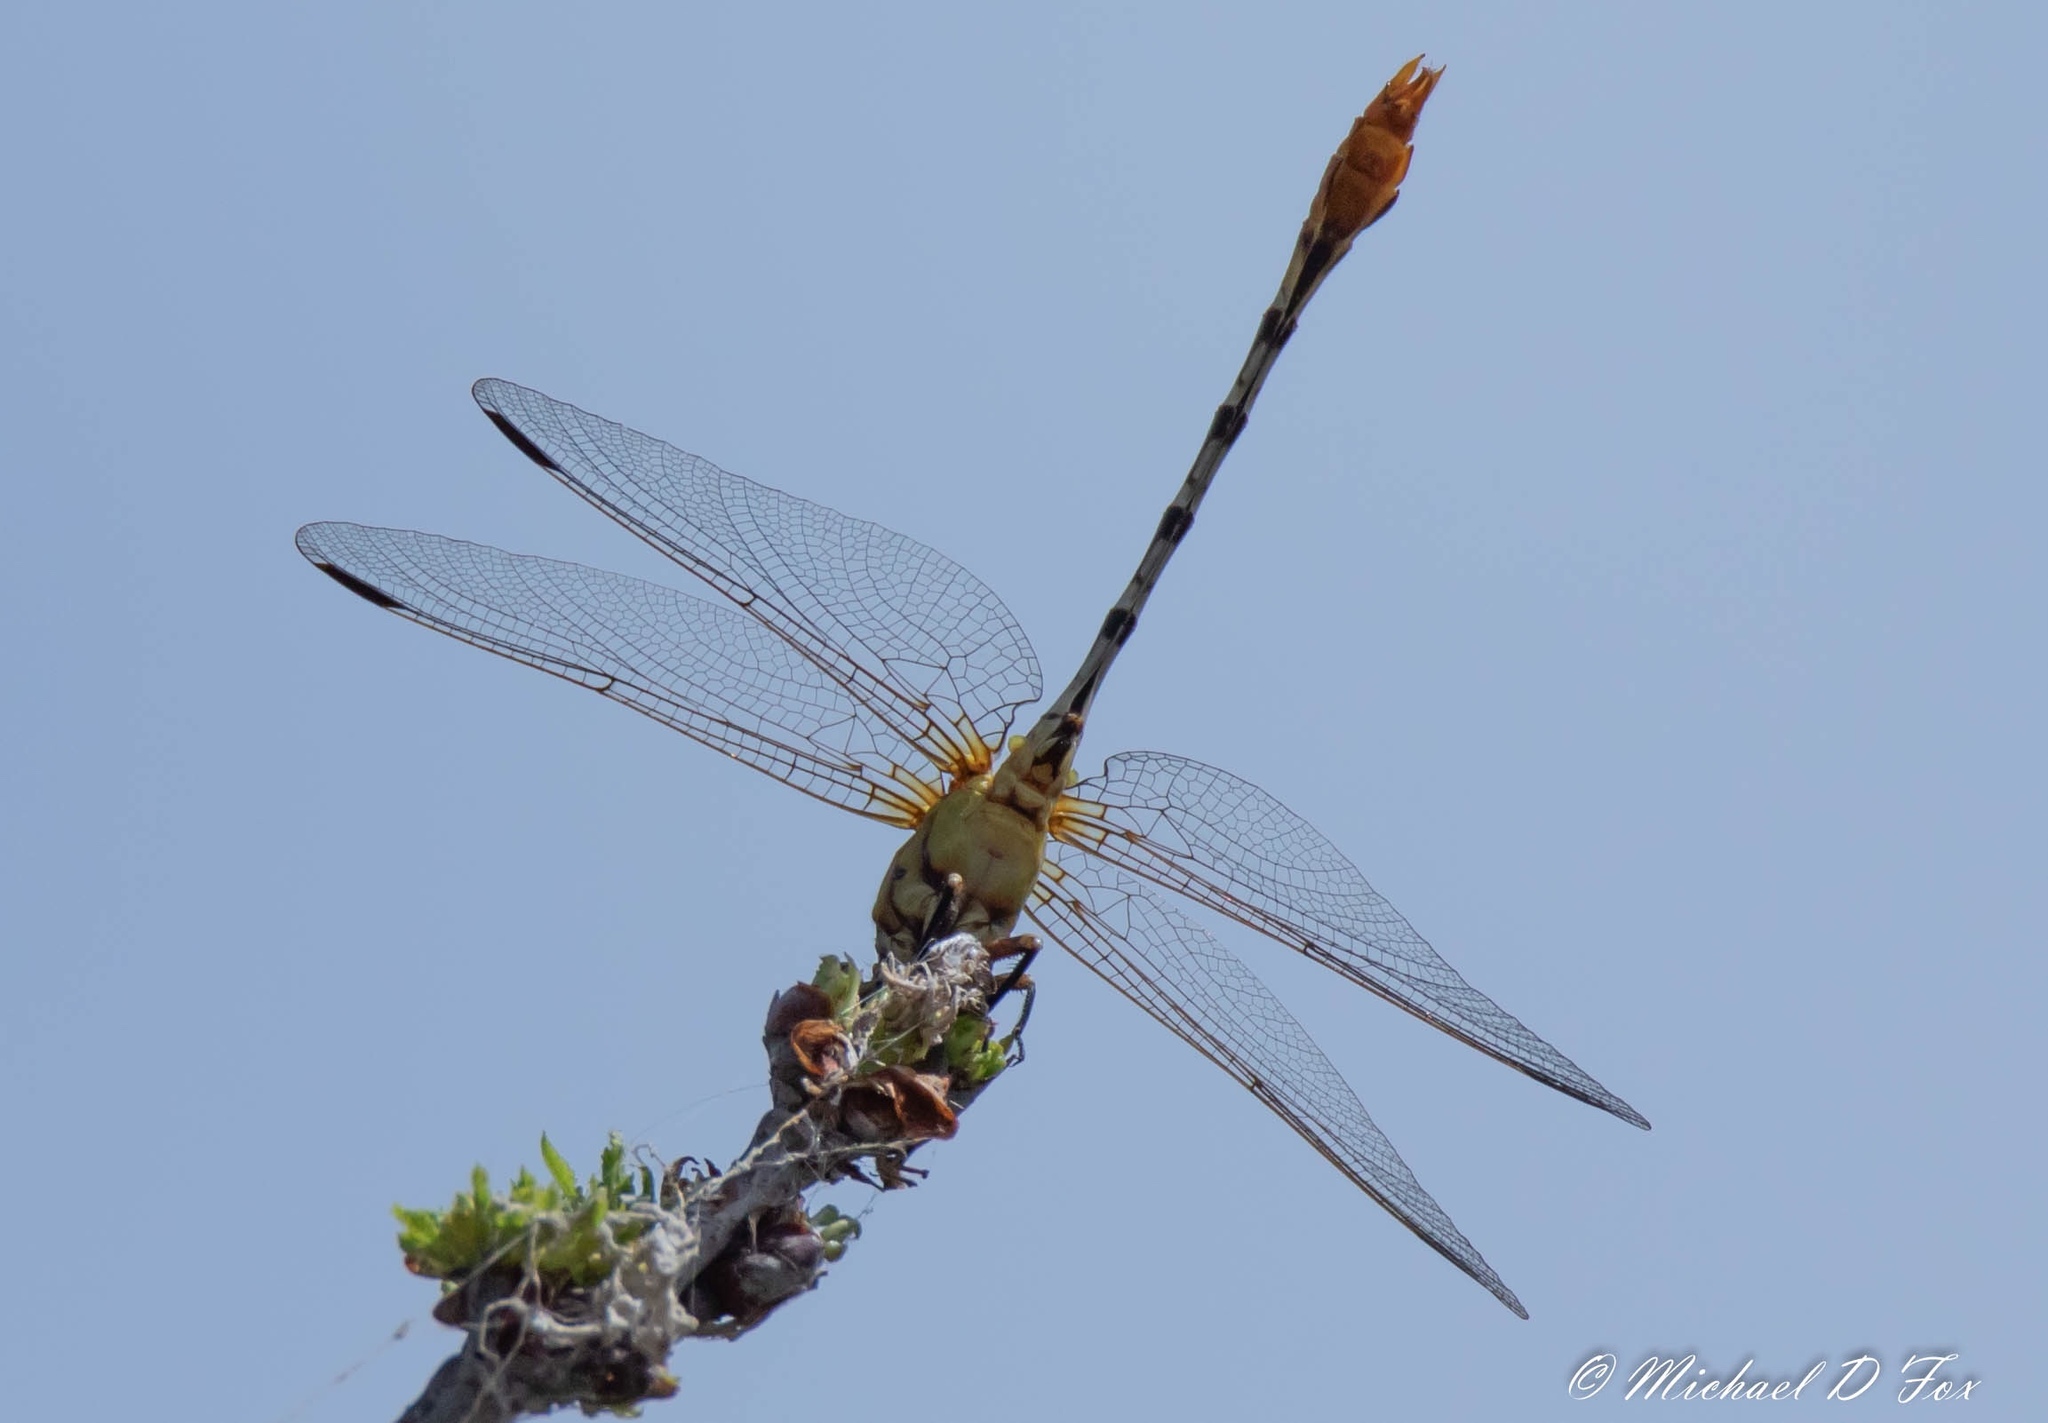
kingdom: Animalia
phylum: Arthropoda
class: Insecta
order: Odonata
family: Libellulidae
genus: Pantala
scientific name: Pantala flavescens
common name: Wandering glider
